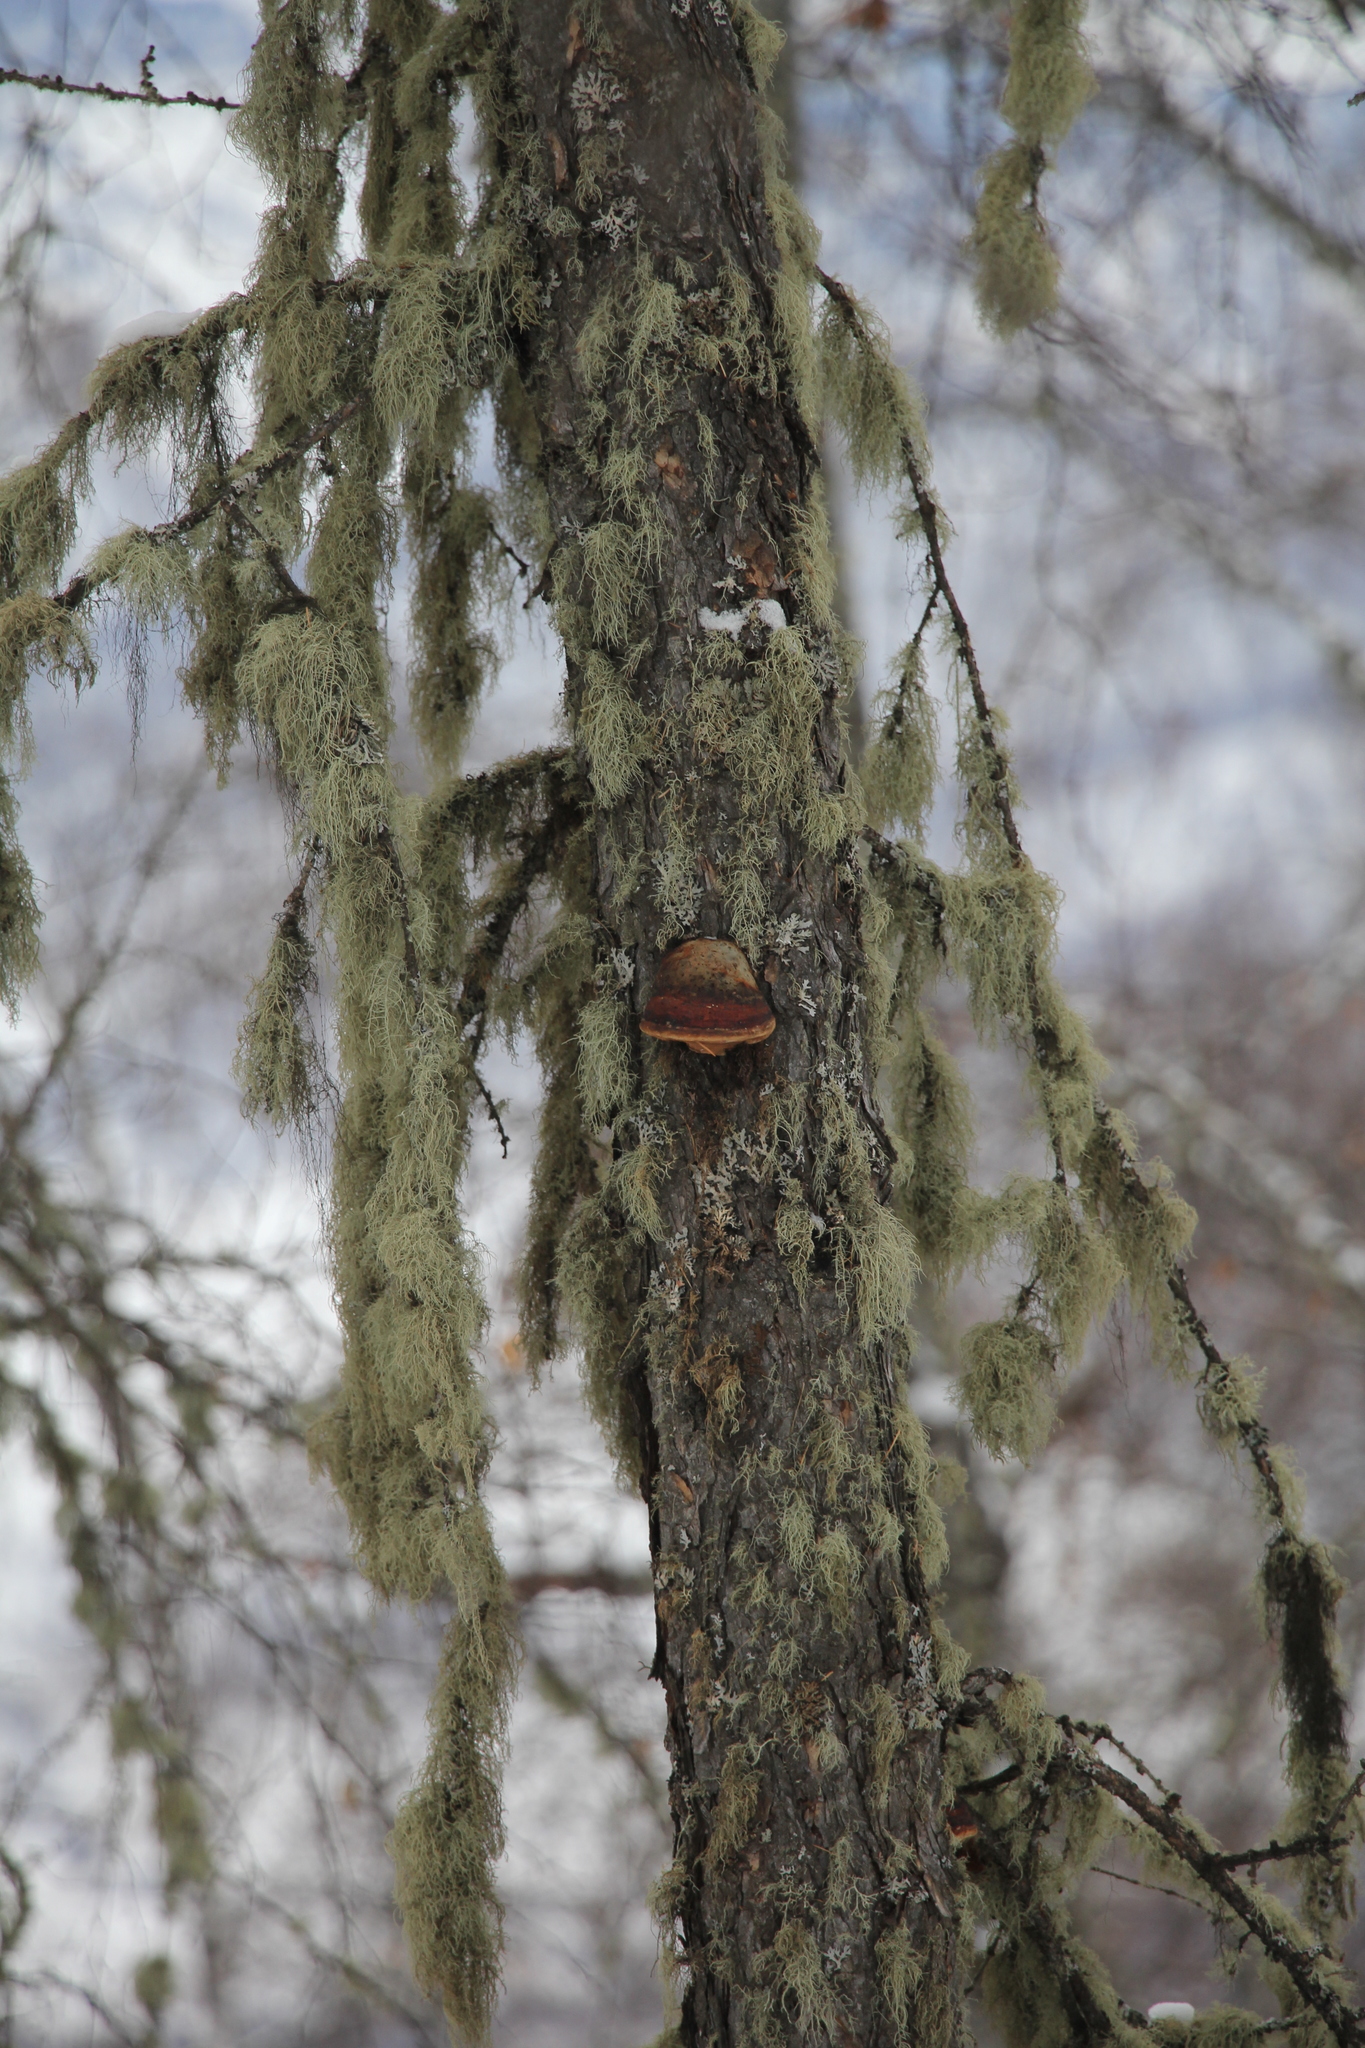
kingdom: Fungi
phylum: Basidiomycota
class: Agaricomycetes
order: Polyporales
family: Fomitopsidaceae
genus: Fomitopsis
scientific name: Fomitopsis pinicola
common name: Red-belted bracket
